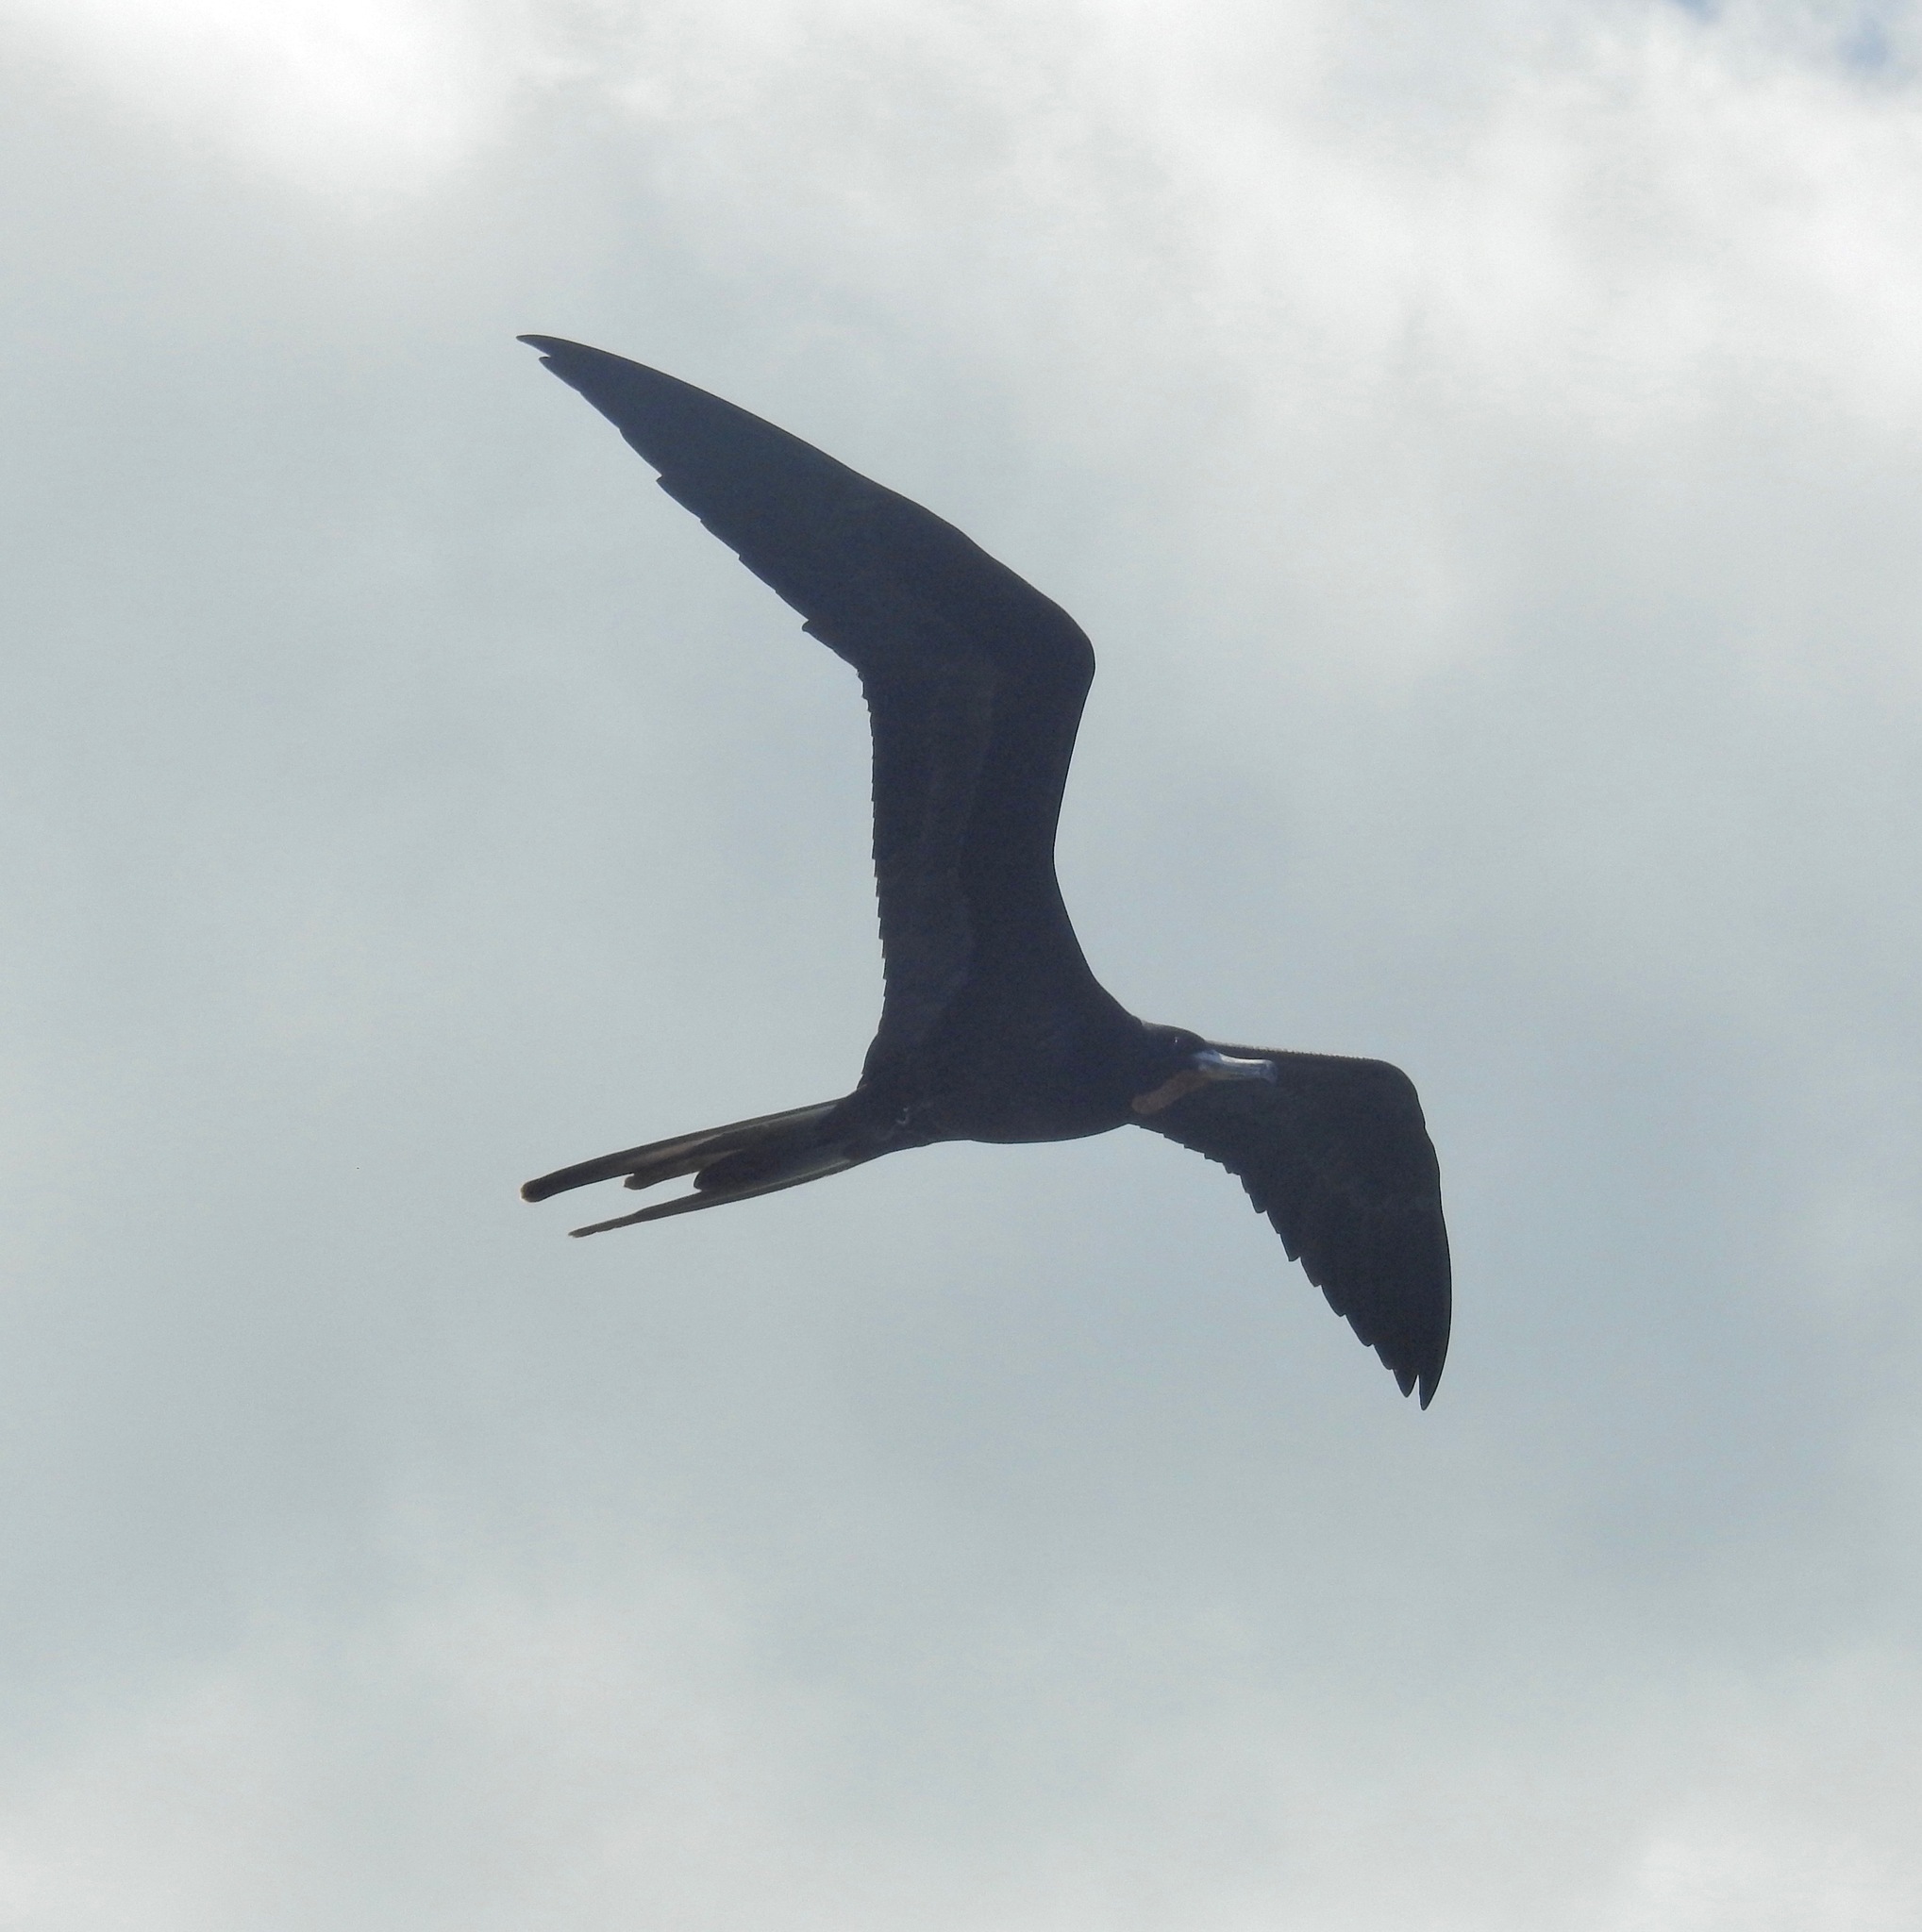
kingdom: Animalia
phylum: Chordata
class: Aves
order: Suliformes
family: Fregatidae
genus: Fregata
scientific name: Fregata magnificens
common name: Magnificent frigatebird
